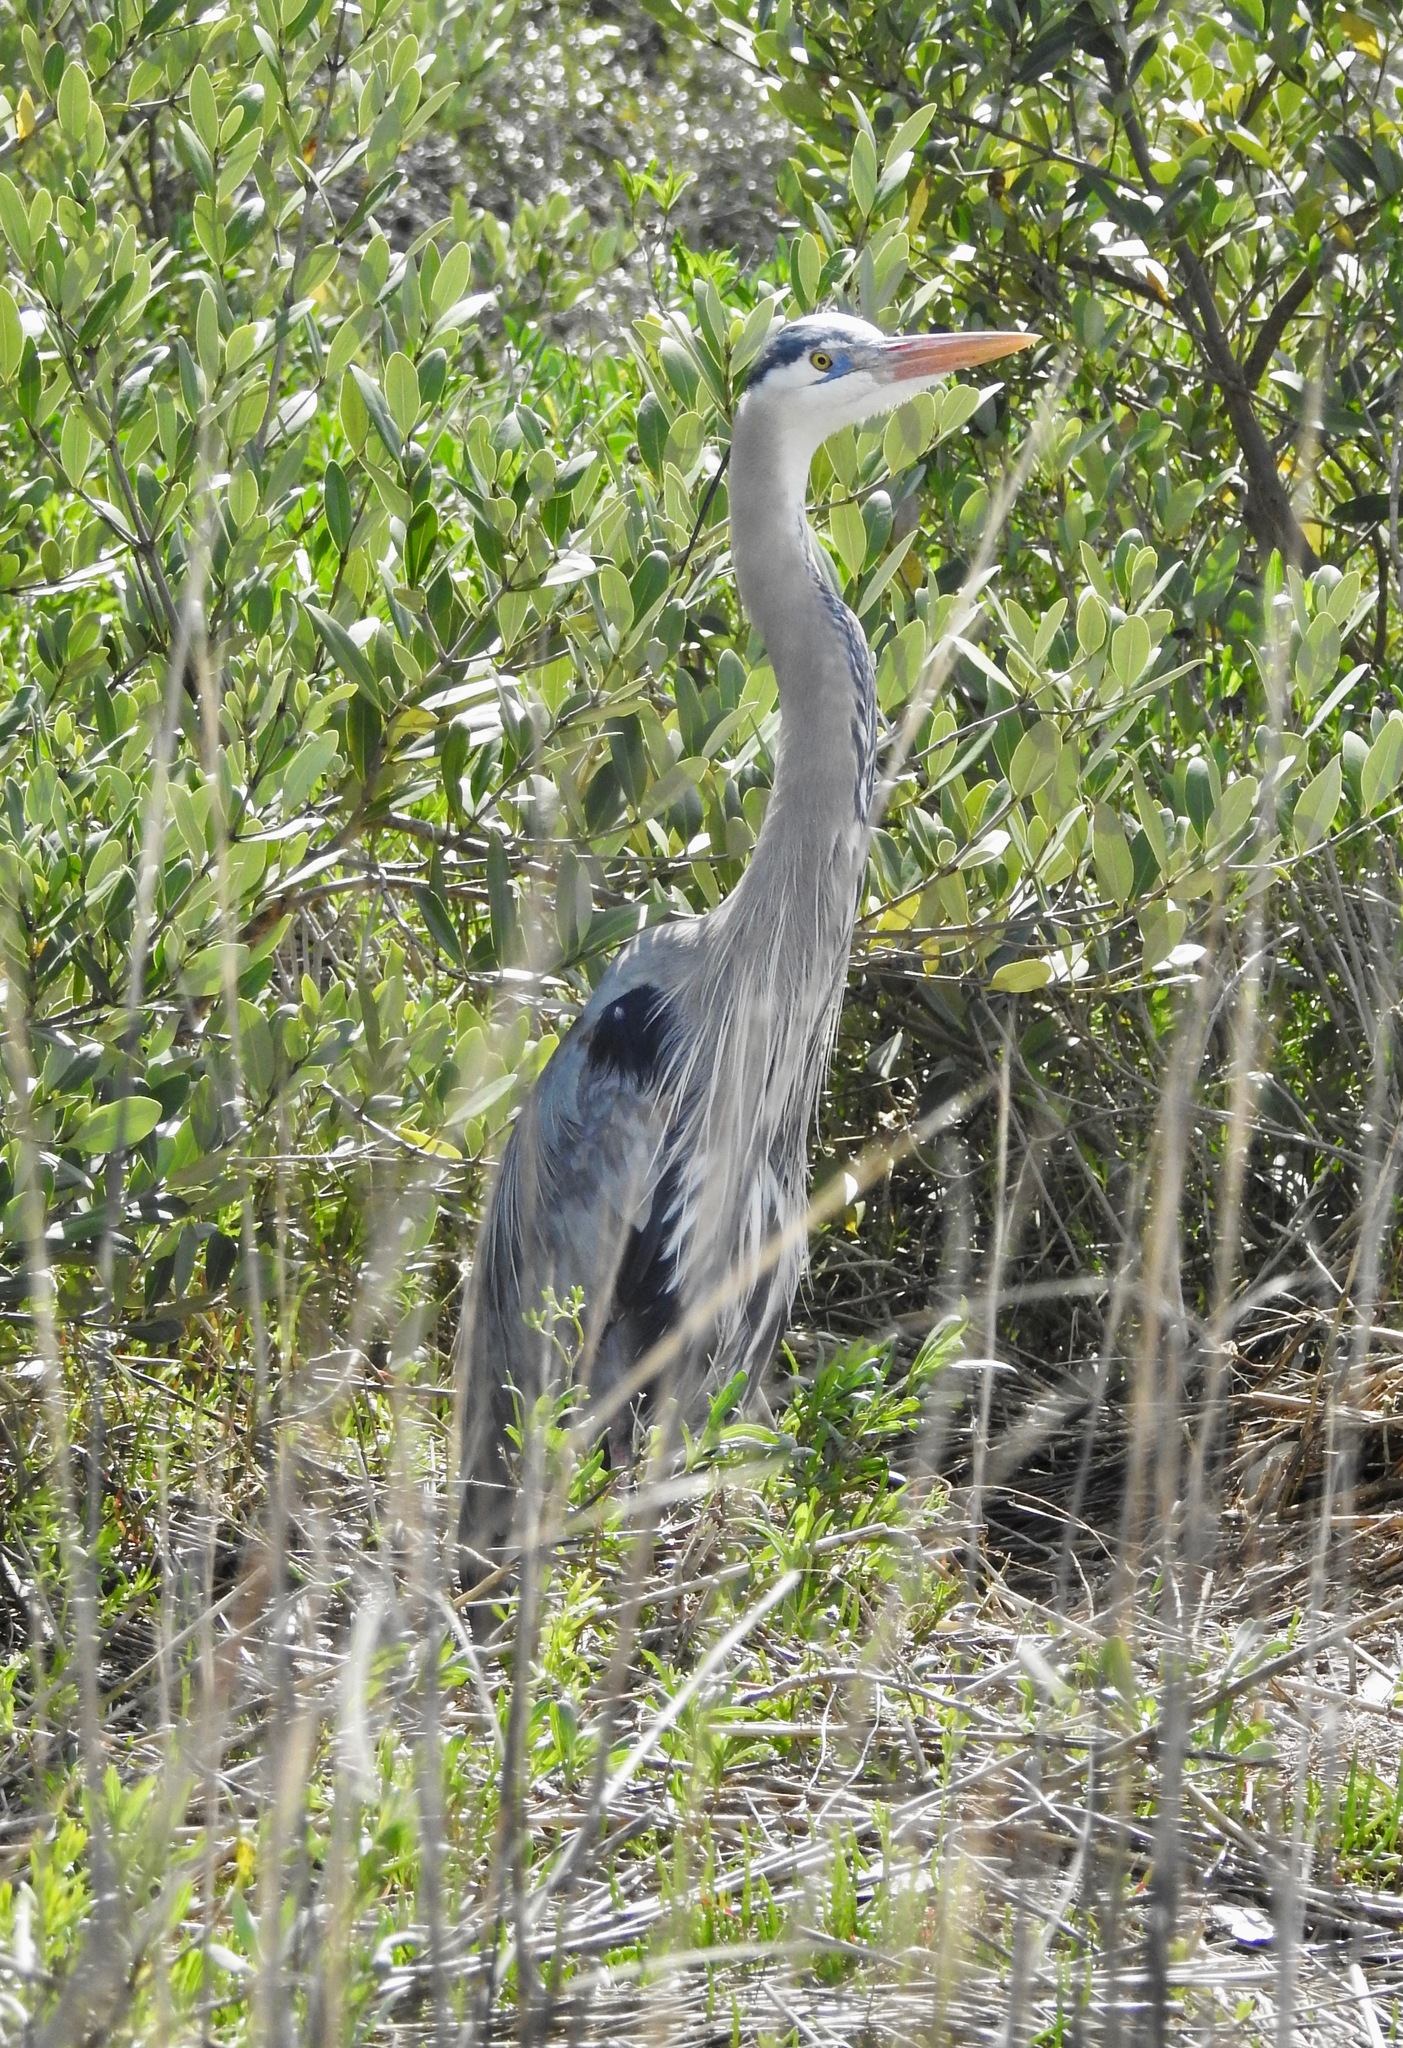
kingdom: Animalia
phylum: Chordata
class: Aves
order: Pelecaniformes
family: Ardeidae
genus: Ardea
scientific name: Ardea herodias
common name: Great blue heron
